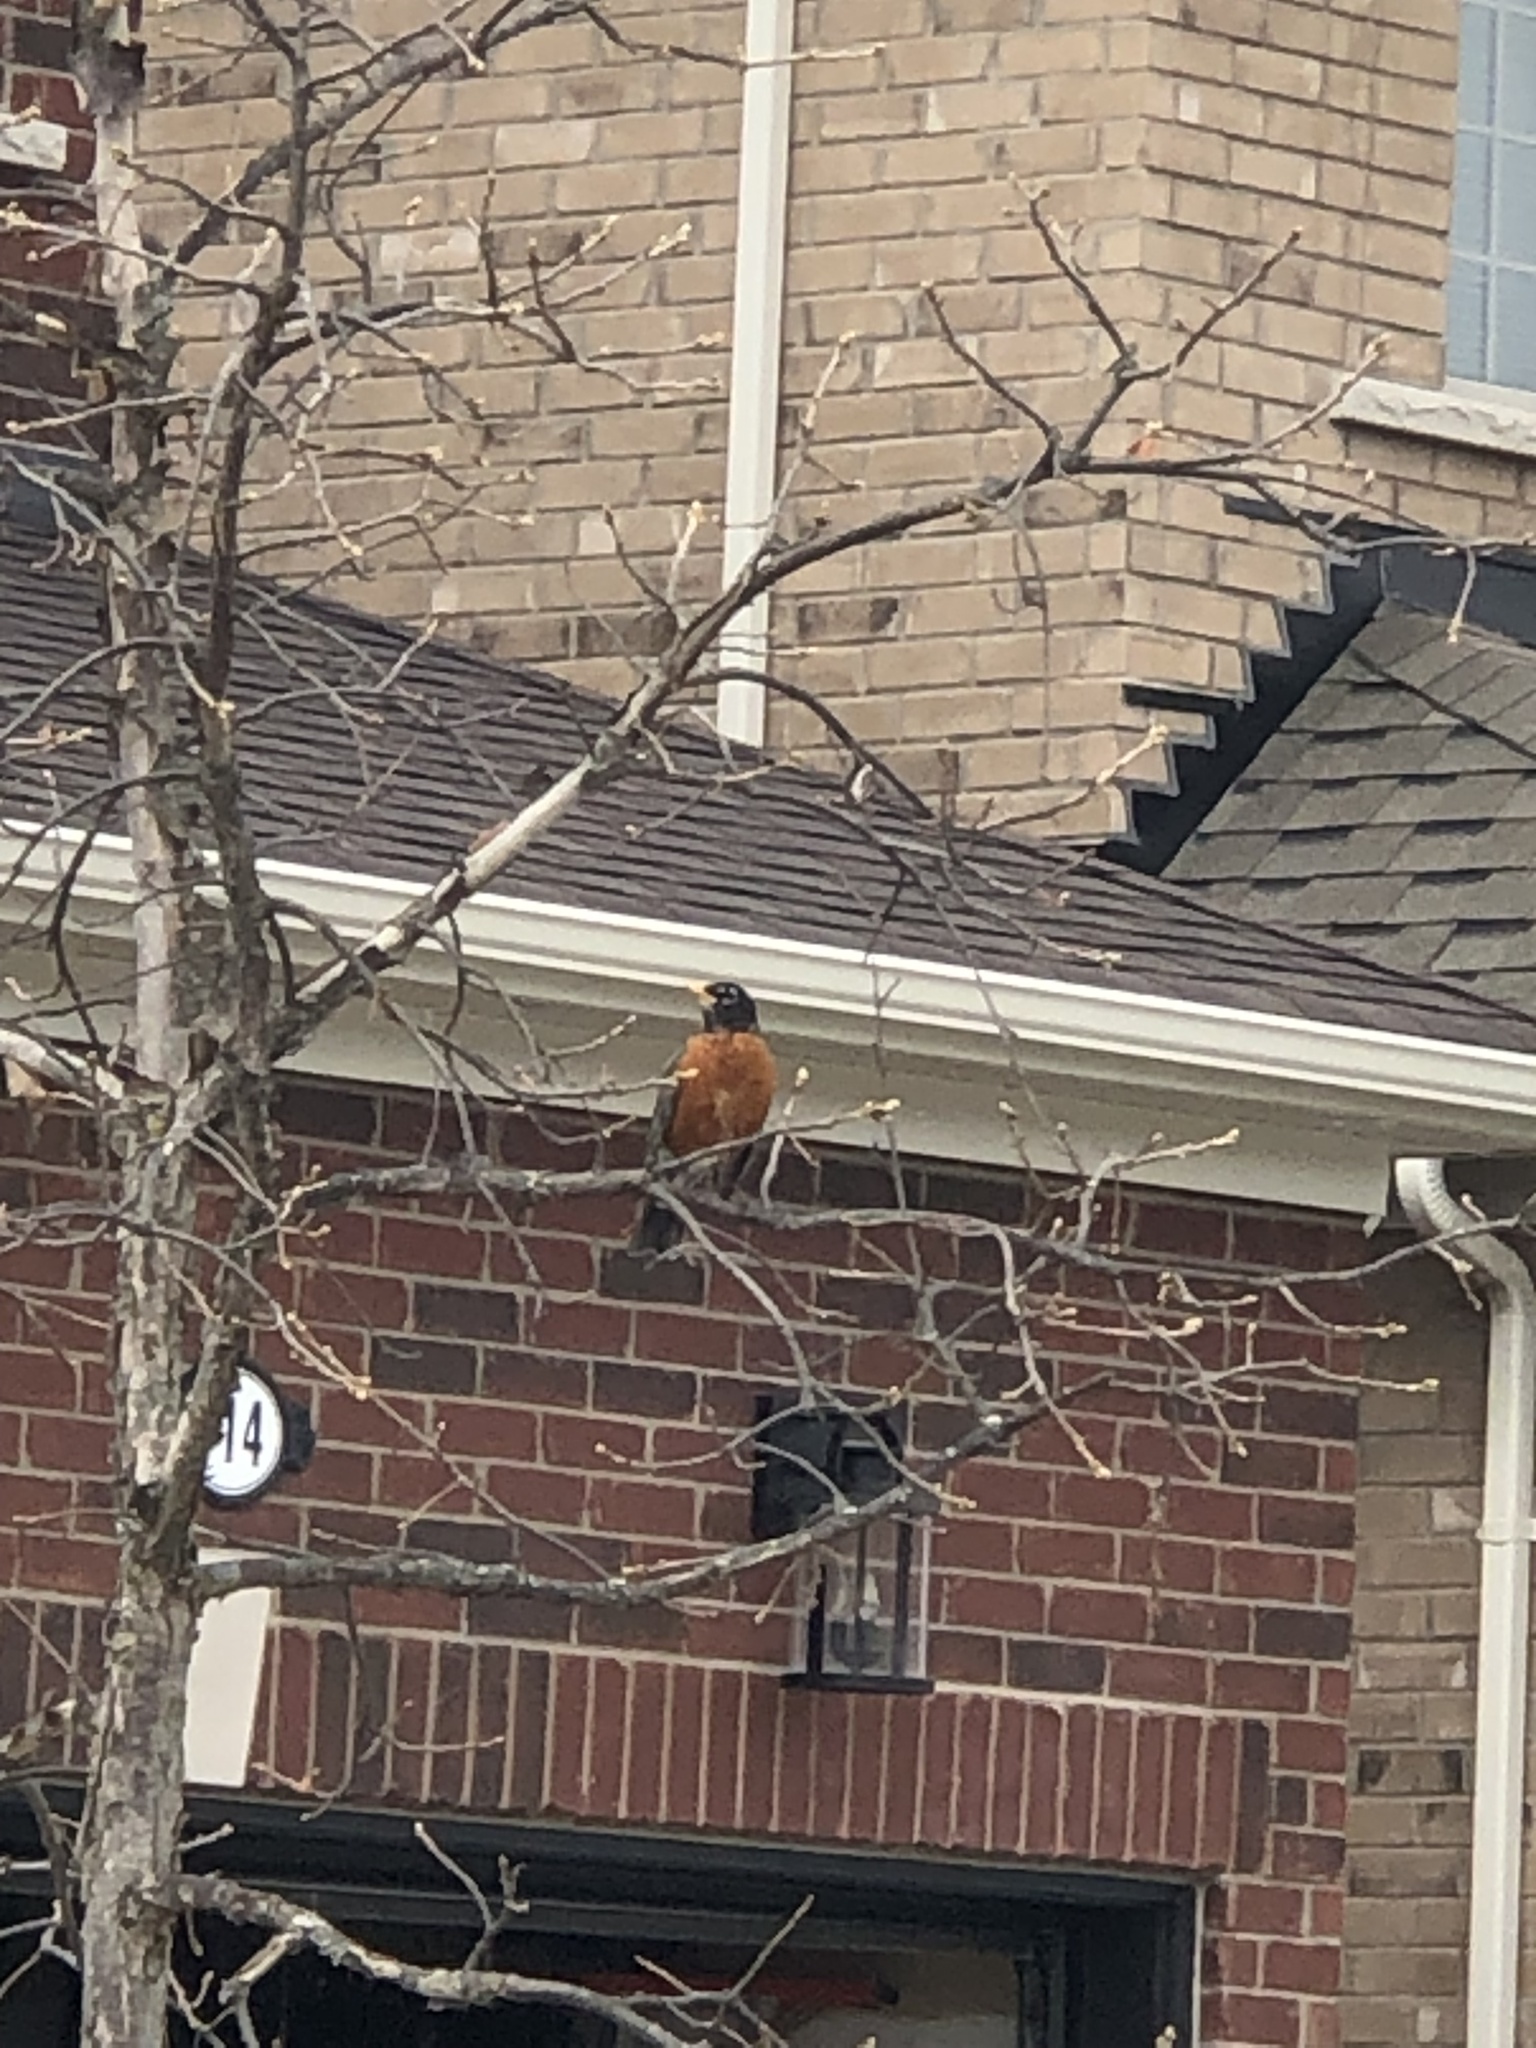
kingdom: Animalia
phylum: Chordata
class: Aves
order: Passeriformes
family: Turdidae
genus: Turdus
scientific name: Turdus migratorius
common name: American robin
